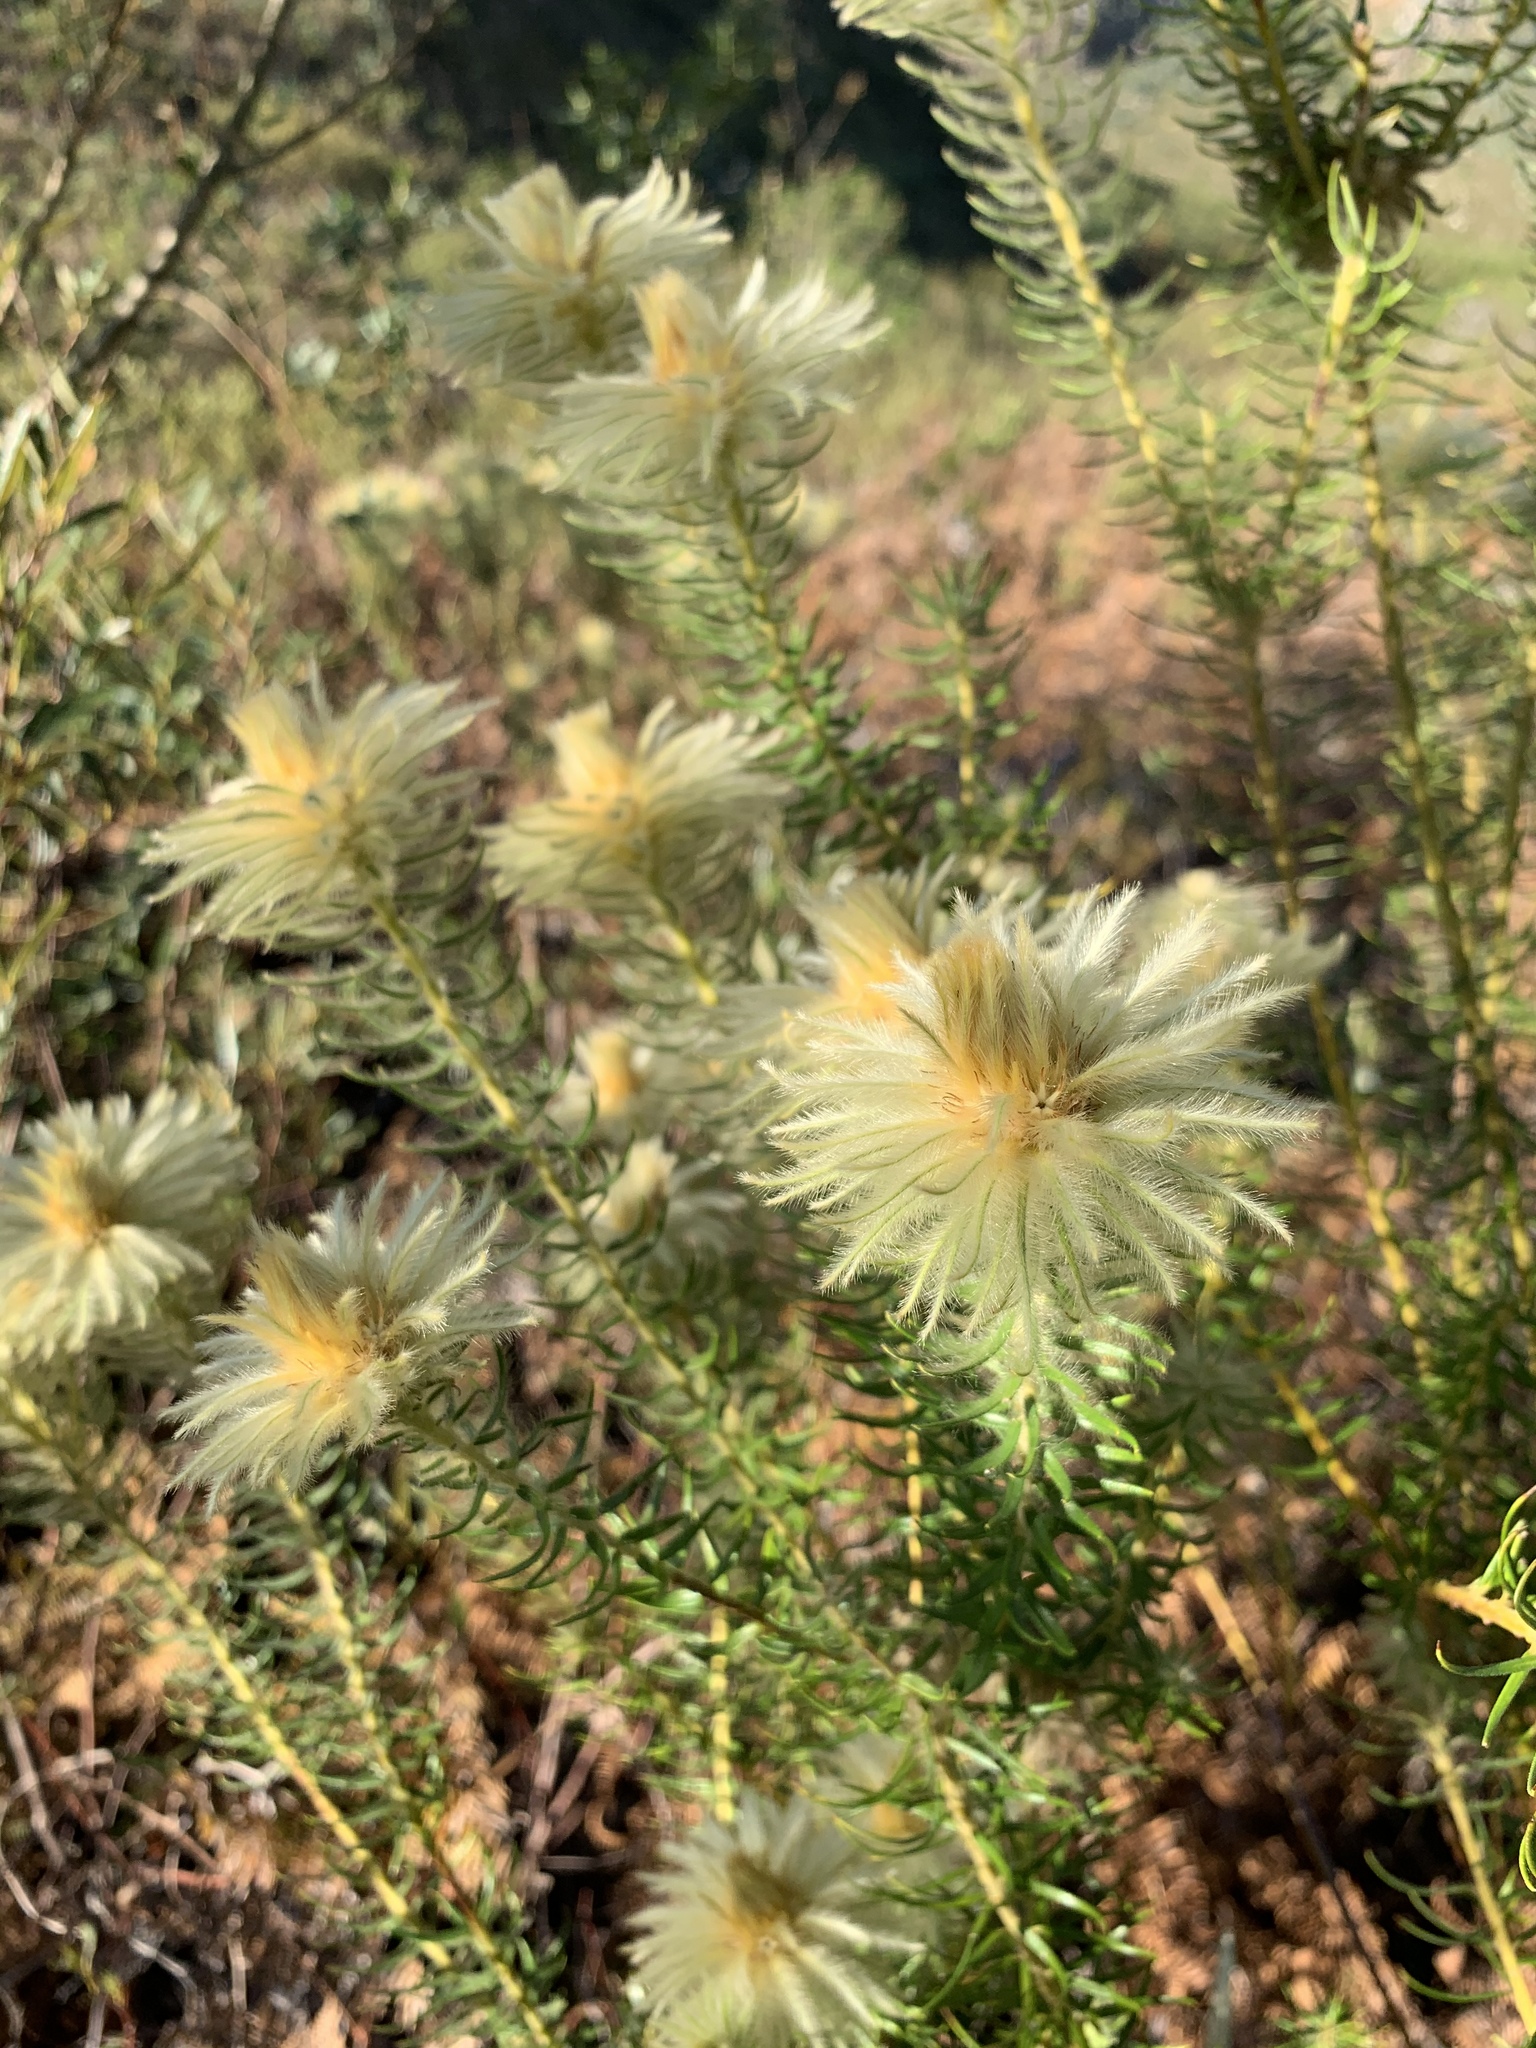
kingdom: Plantae
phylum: Tracheophyta
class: Magnoliopsida
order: Rosales
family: Rhamnaceae
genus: Phylica
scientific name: Phylica pubescens
